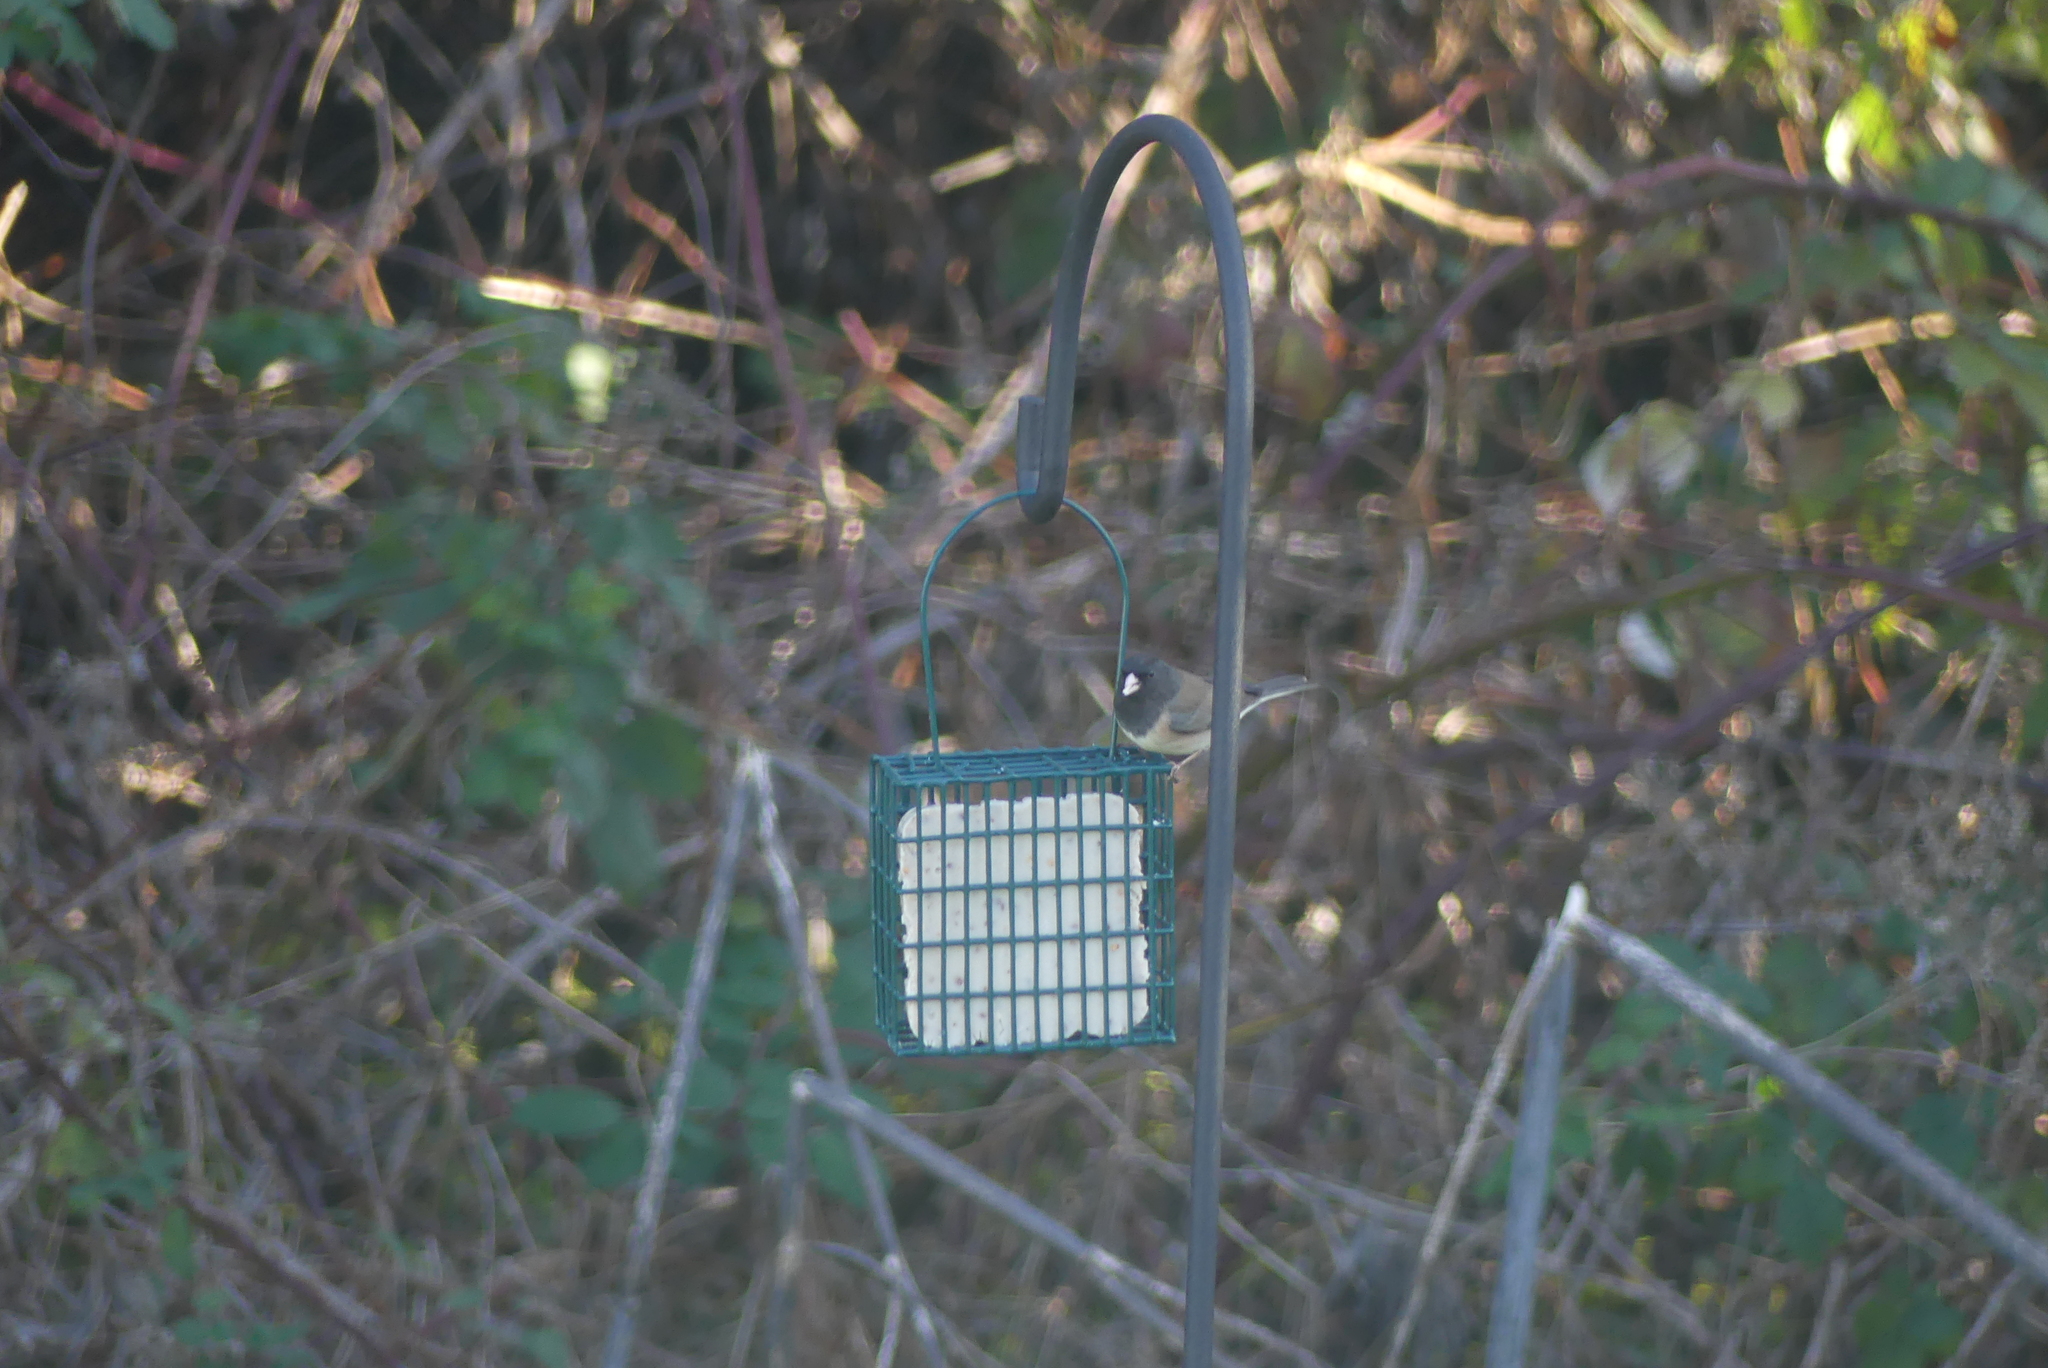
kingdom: Animalia
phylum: Chordata
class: Aves
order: Passeriformes
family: Passerellidae
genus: Junco
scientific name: Junco hyemalis
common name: Dark-eyed junco
